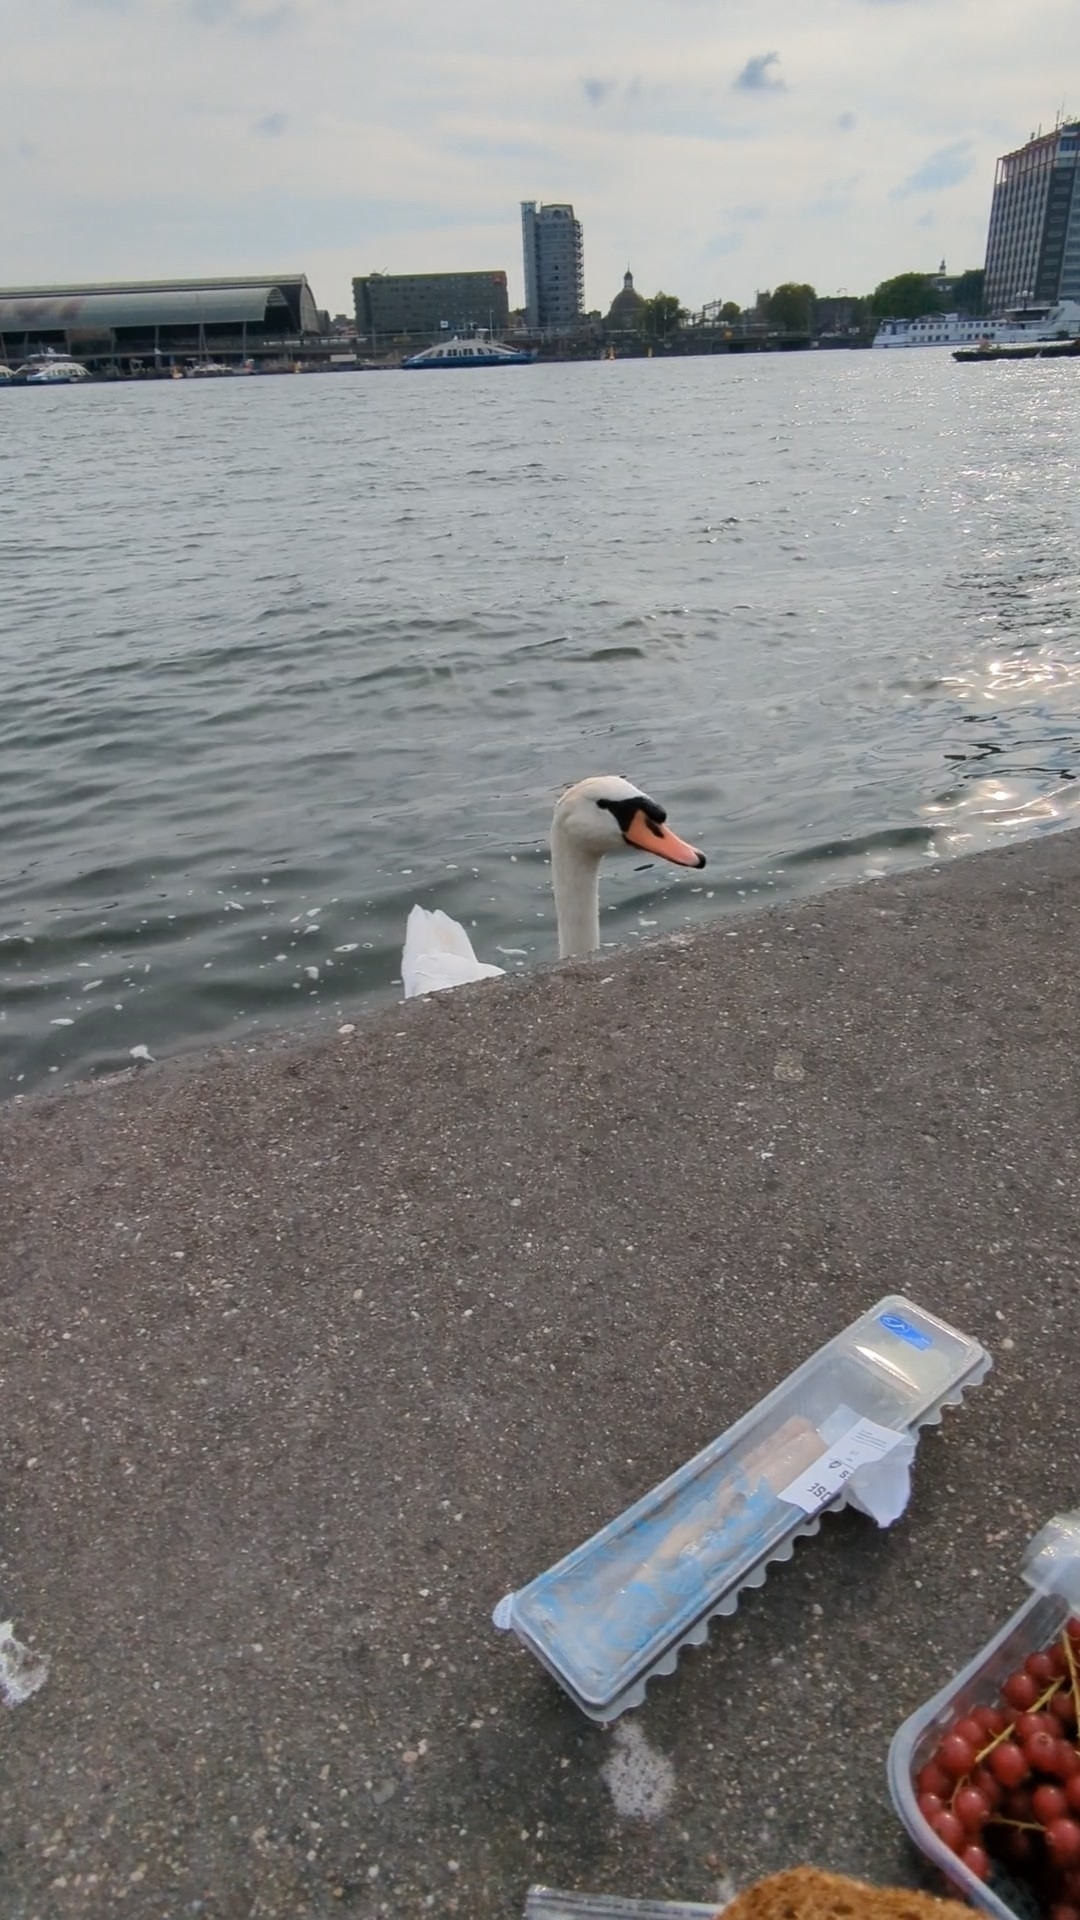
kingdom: Animalia
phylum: Chordata
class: Aves
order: Anseriformes
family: Anatidae
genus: Cygnus
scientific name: Cygnus olor
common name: Mute swan
